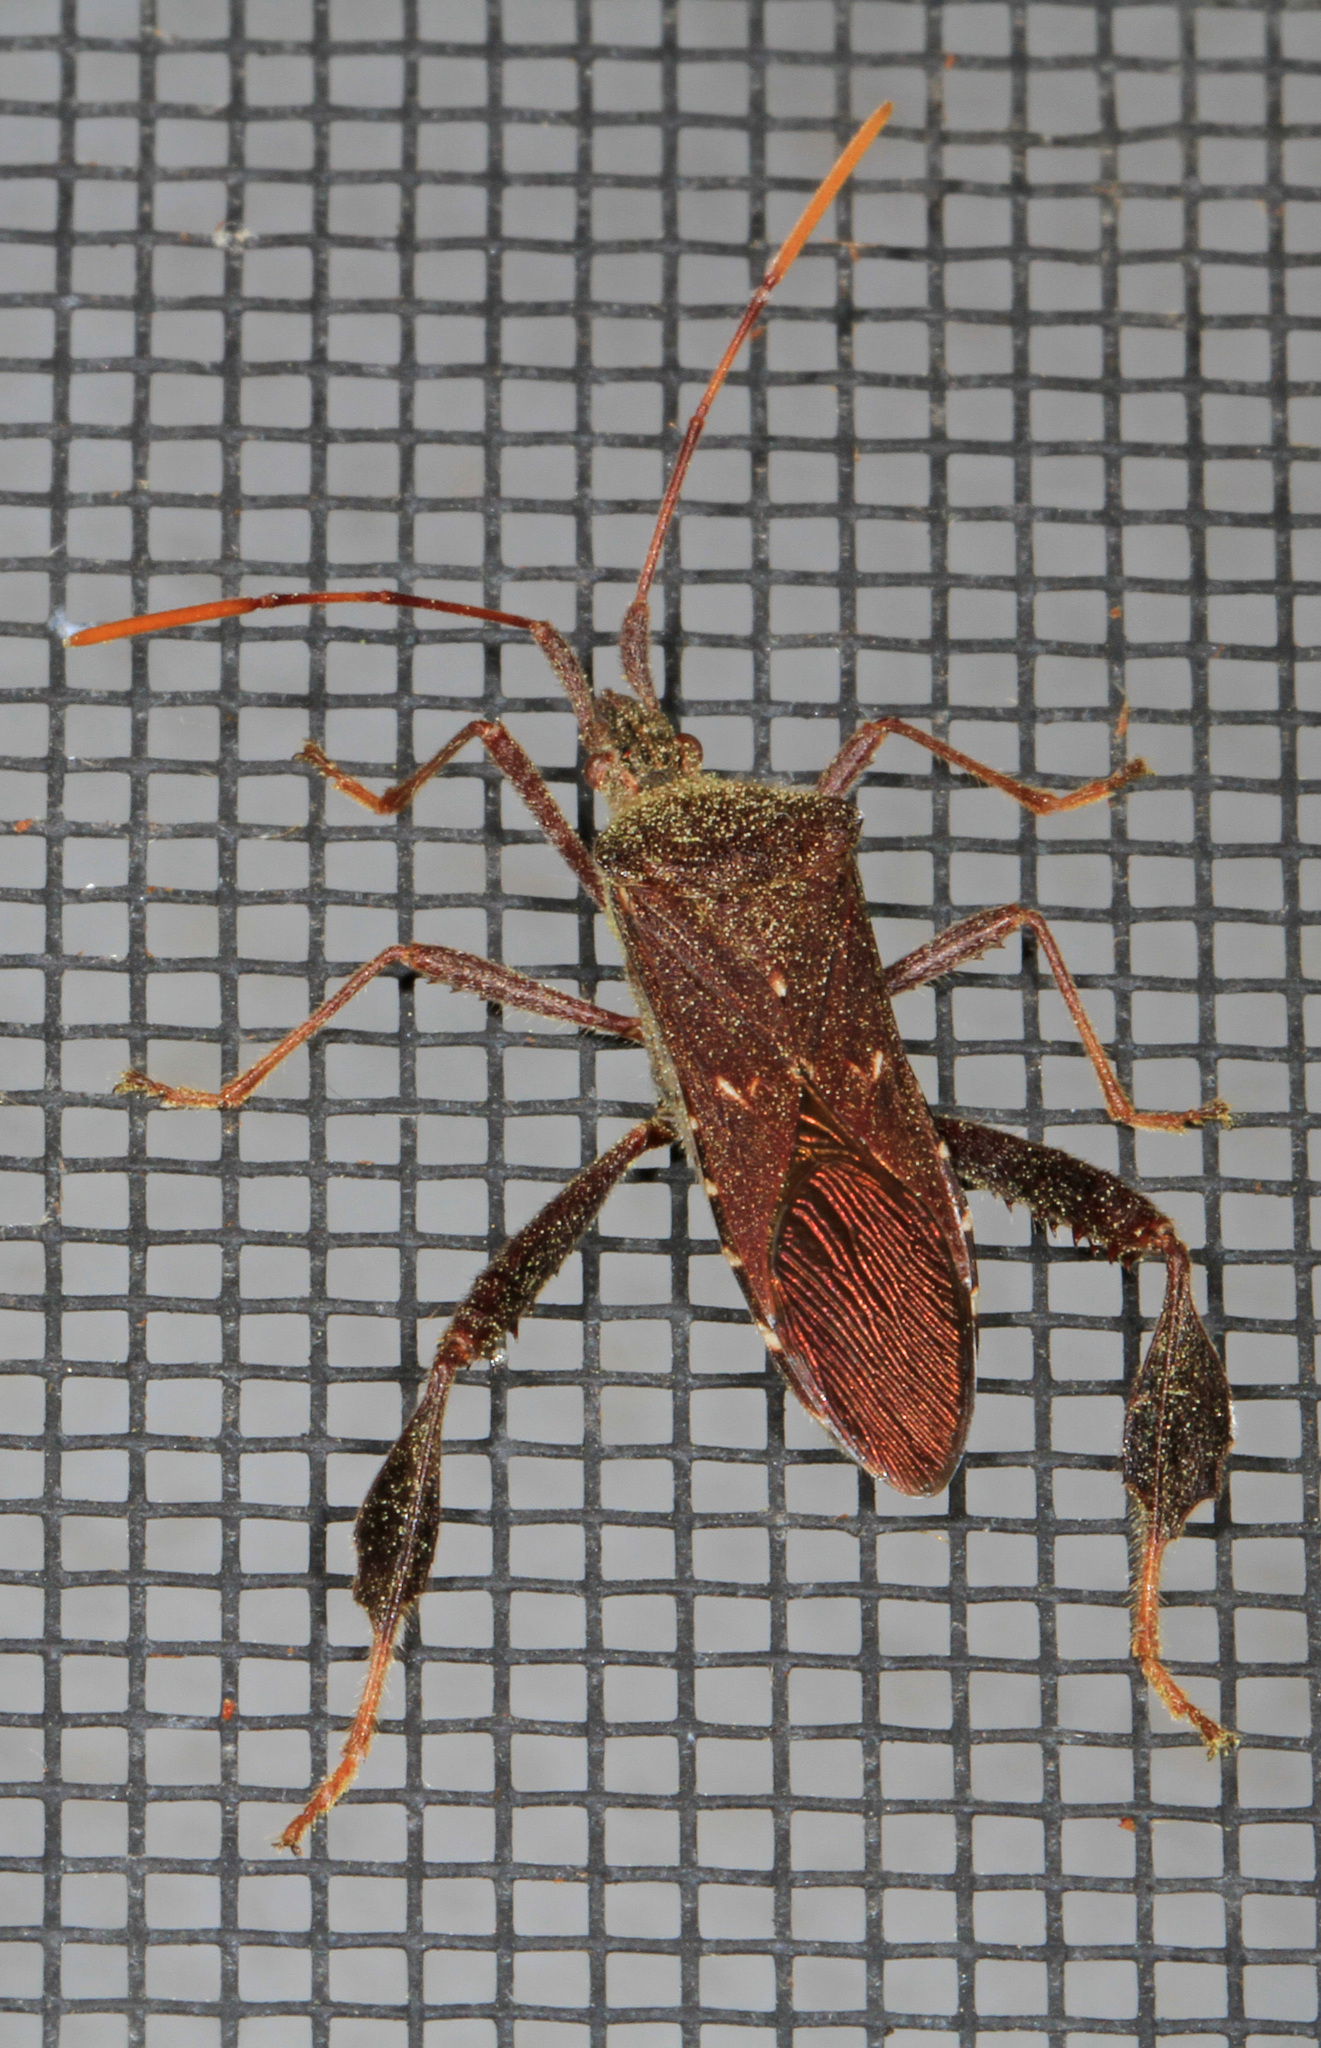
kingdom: Animalia
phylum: Arthropoda
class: Insecta
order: Hemiptera
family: Coreidae
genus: Leptoglossus
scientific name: Leptoglossus oppositus
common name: Northern leaf-footed bug
